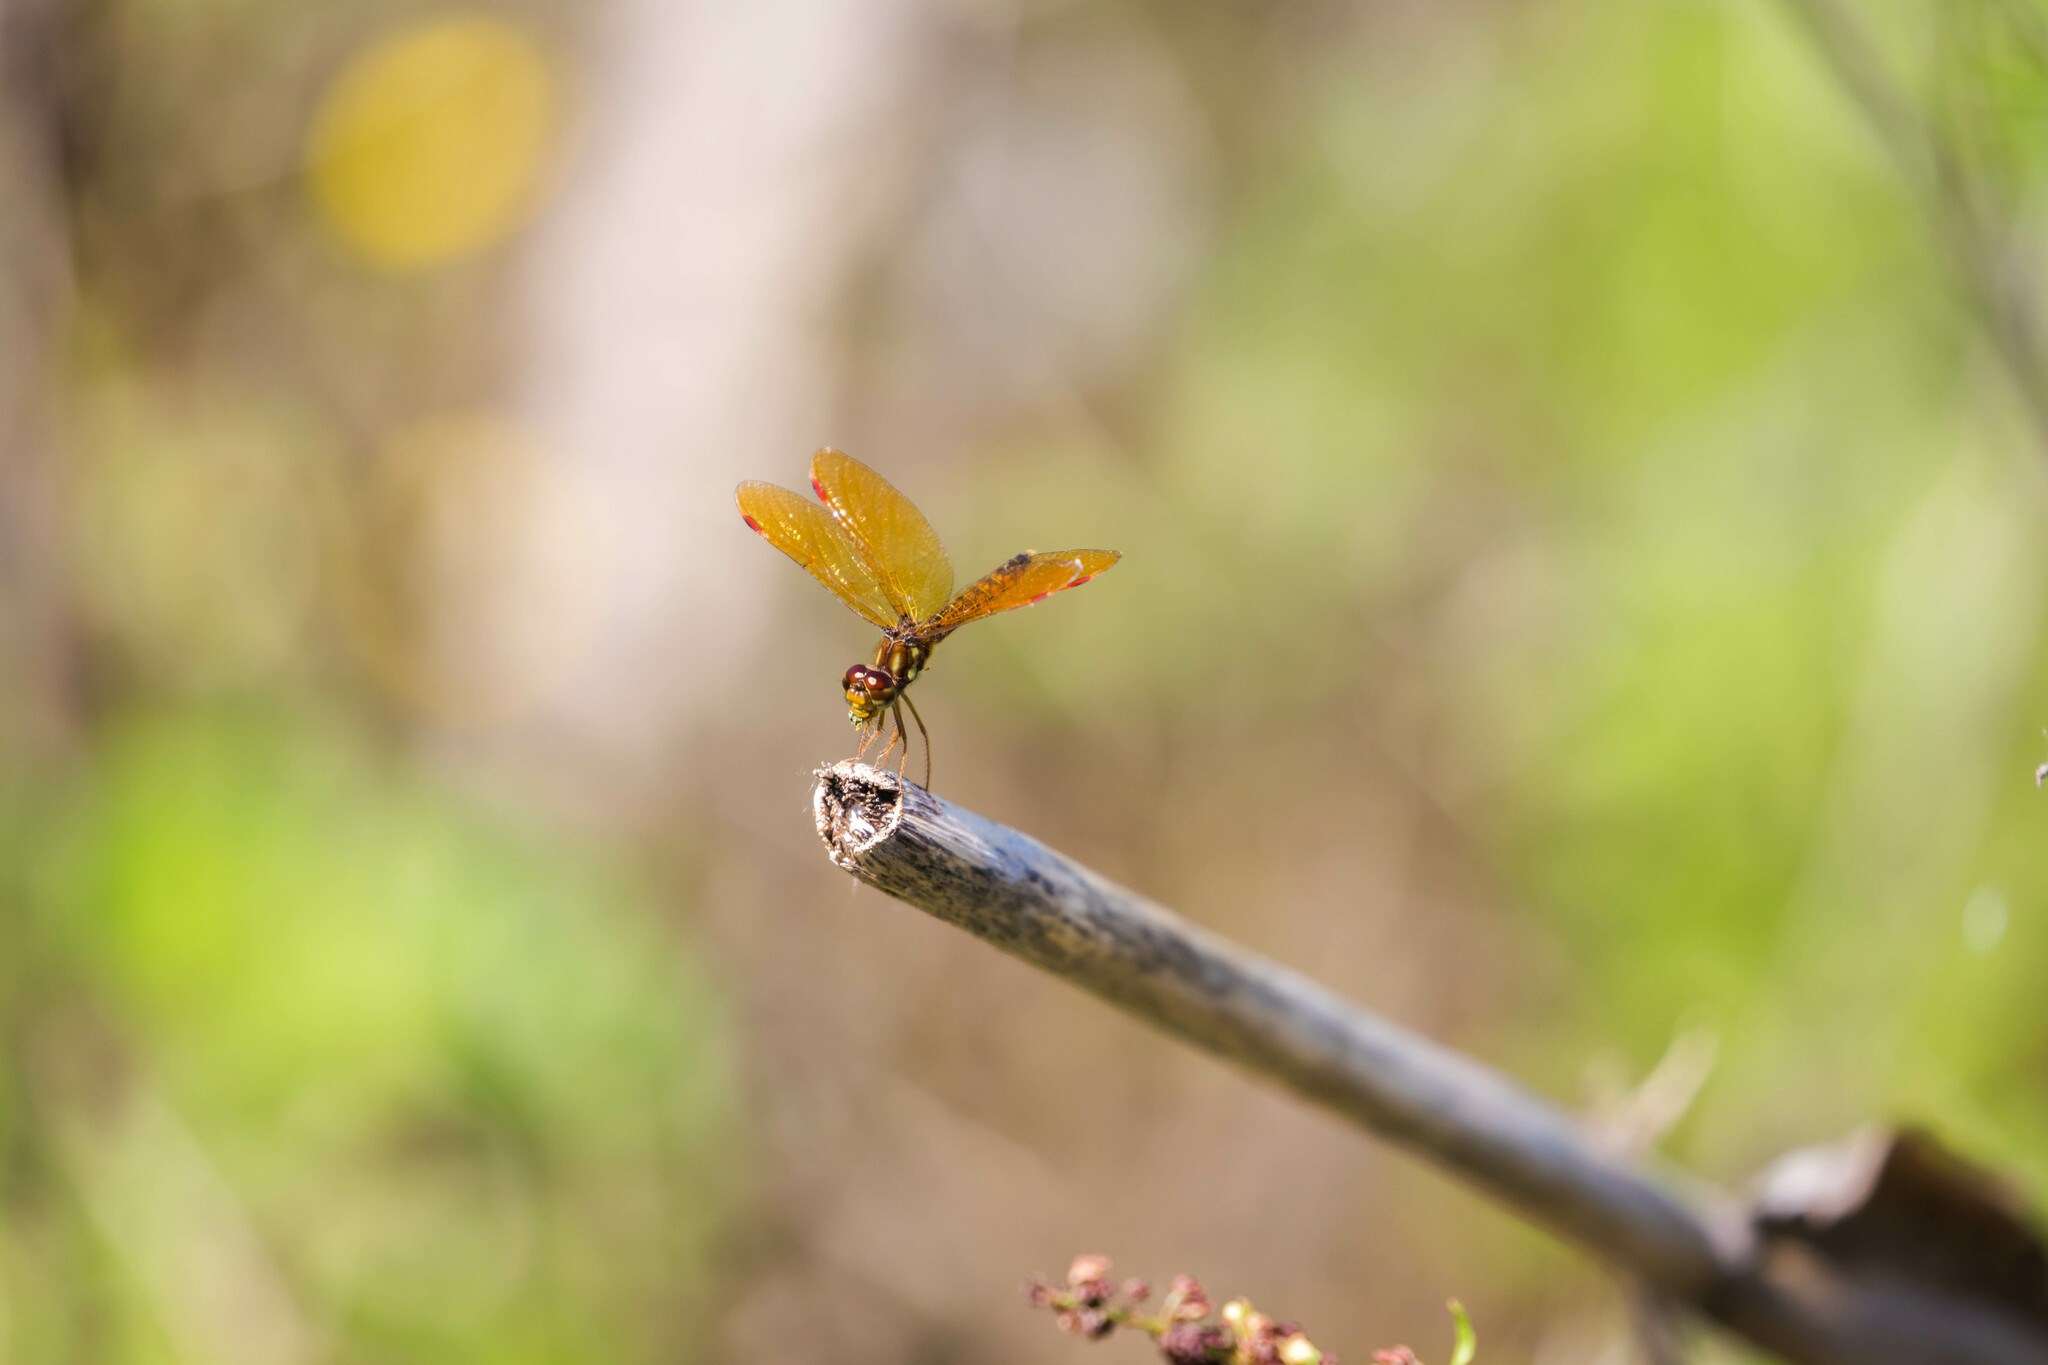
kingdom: Animalia
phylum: Arthropoda
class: Insecta
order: Odonata
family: Libellulidae
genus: Perithemis
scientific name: Perithemis tenera
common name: Eastern amberwing
